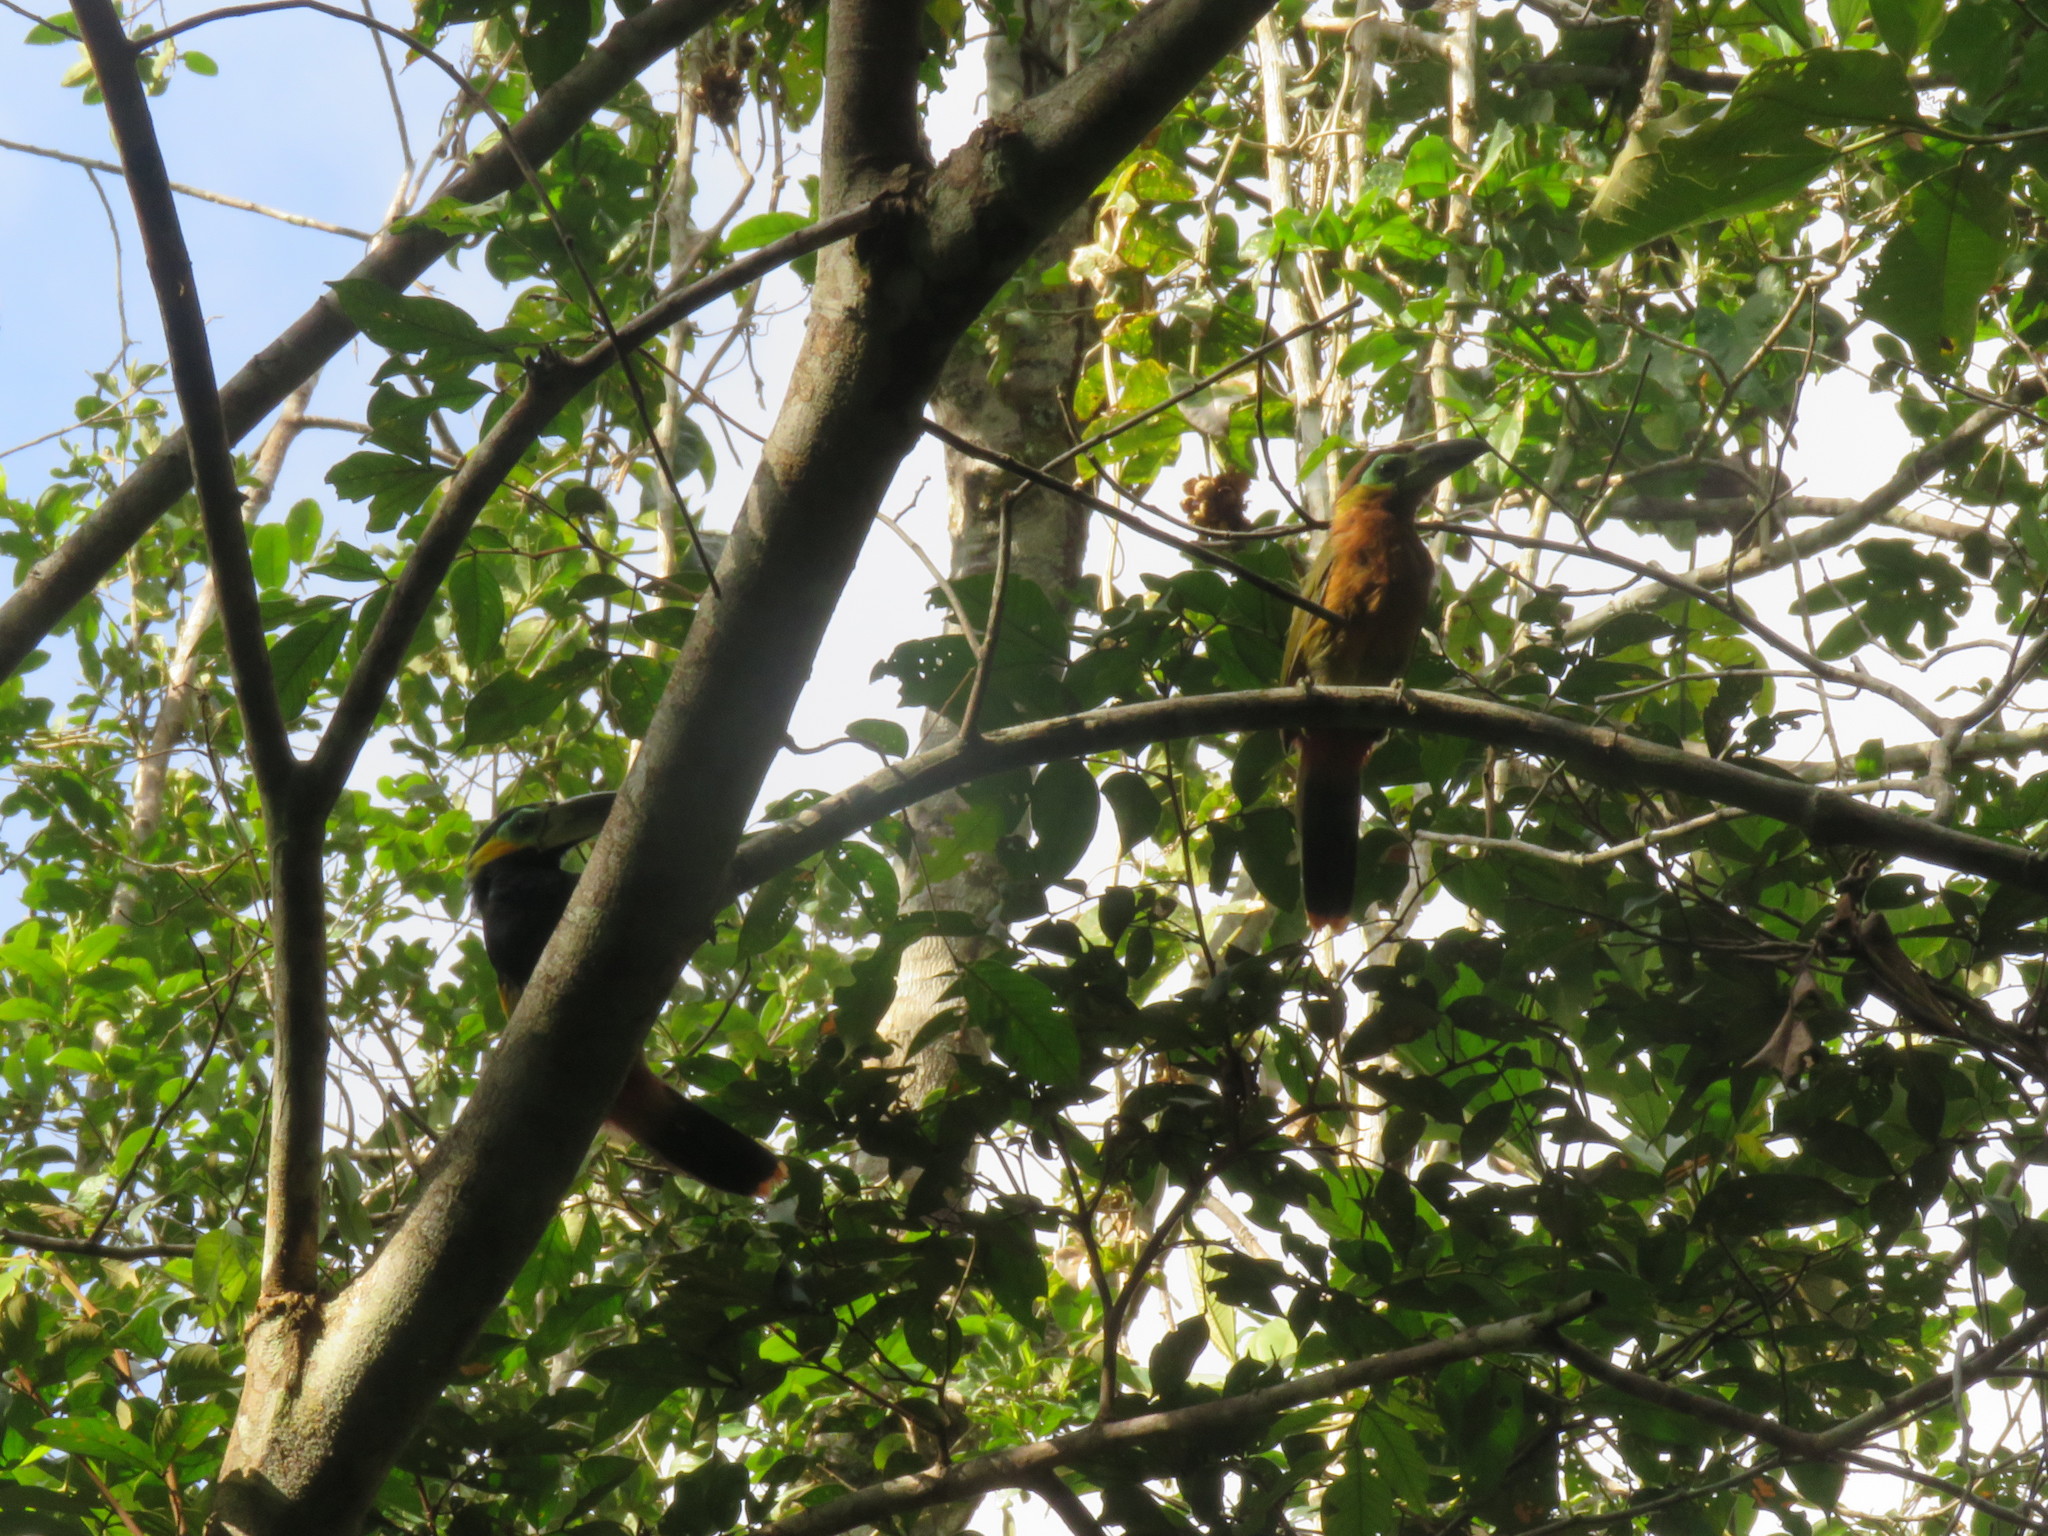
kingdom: Animalia
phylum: Chordata
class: Aves
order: Piciformes
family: Ramphastidae
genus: Selenidera
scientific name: Selenidera reinwardtii
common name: Golden-collared toucanet
